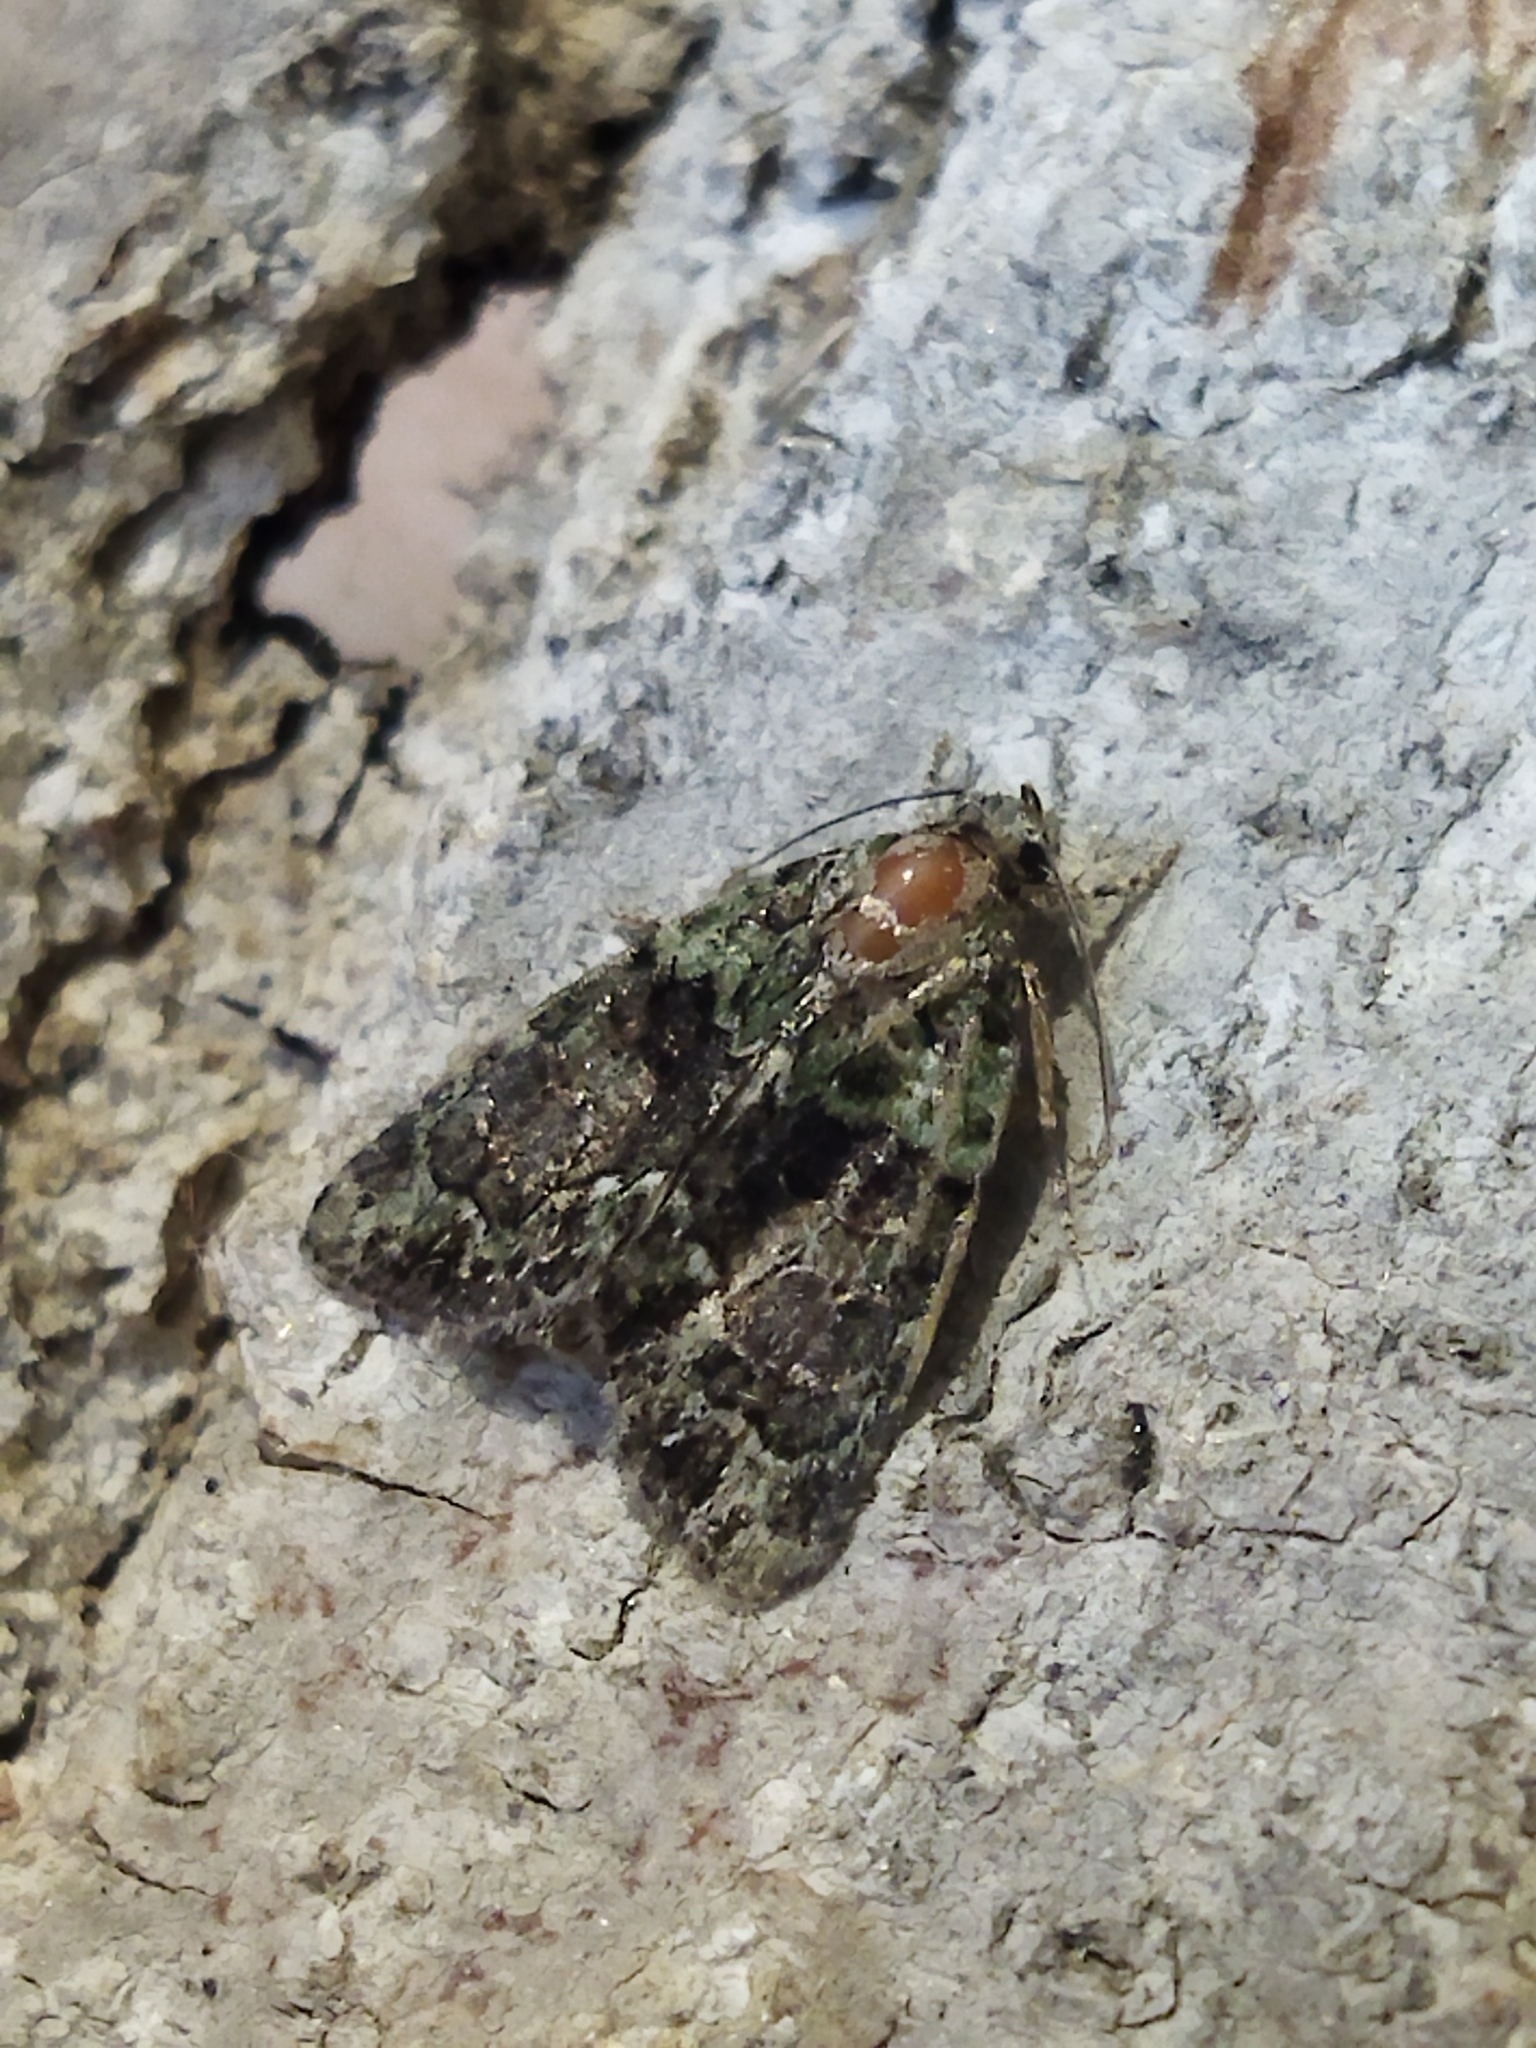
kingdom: Animalia
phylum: Arthropoda
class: Insecta
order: Lepidoptera
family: Noctuidae
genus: Cryphia
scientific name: Cryphia
